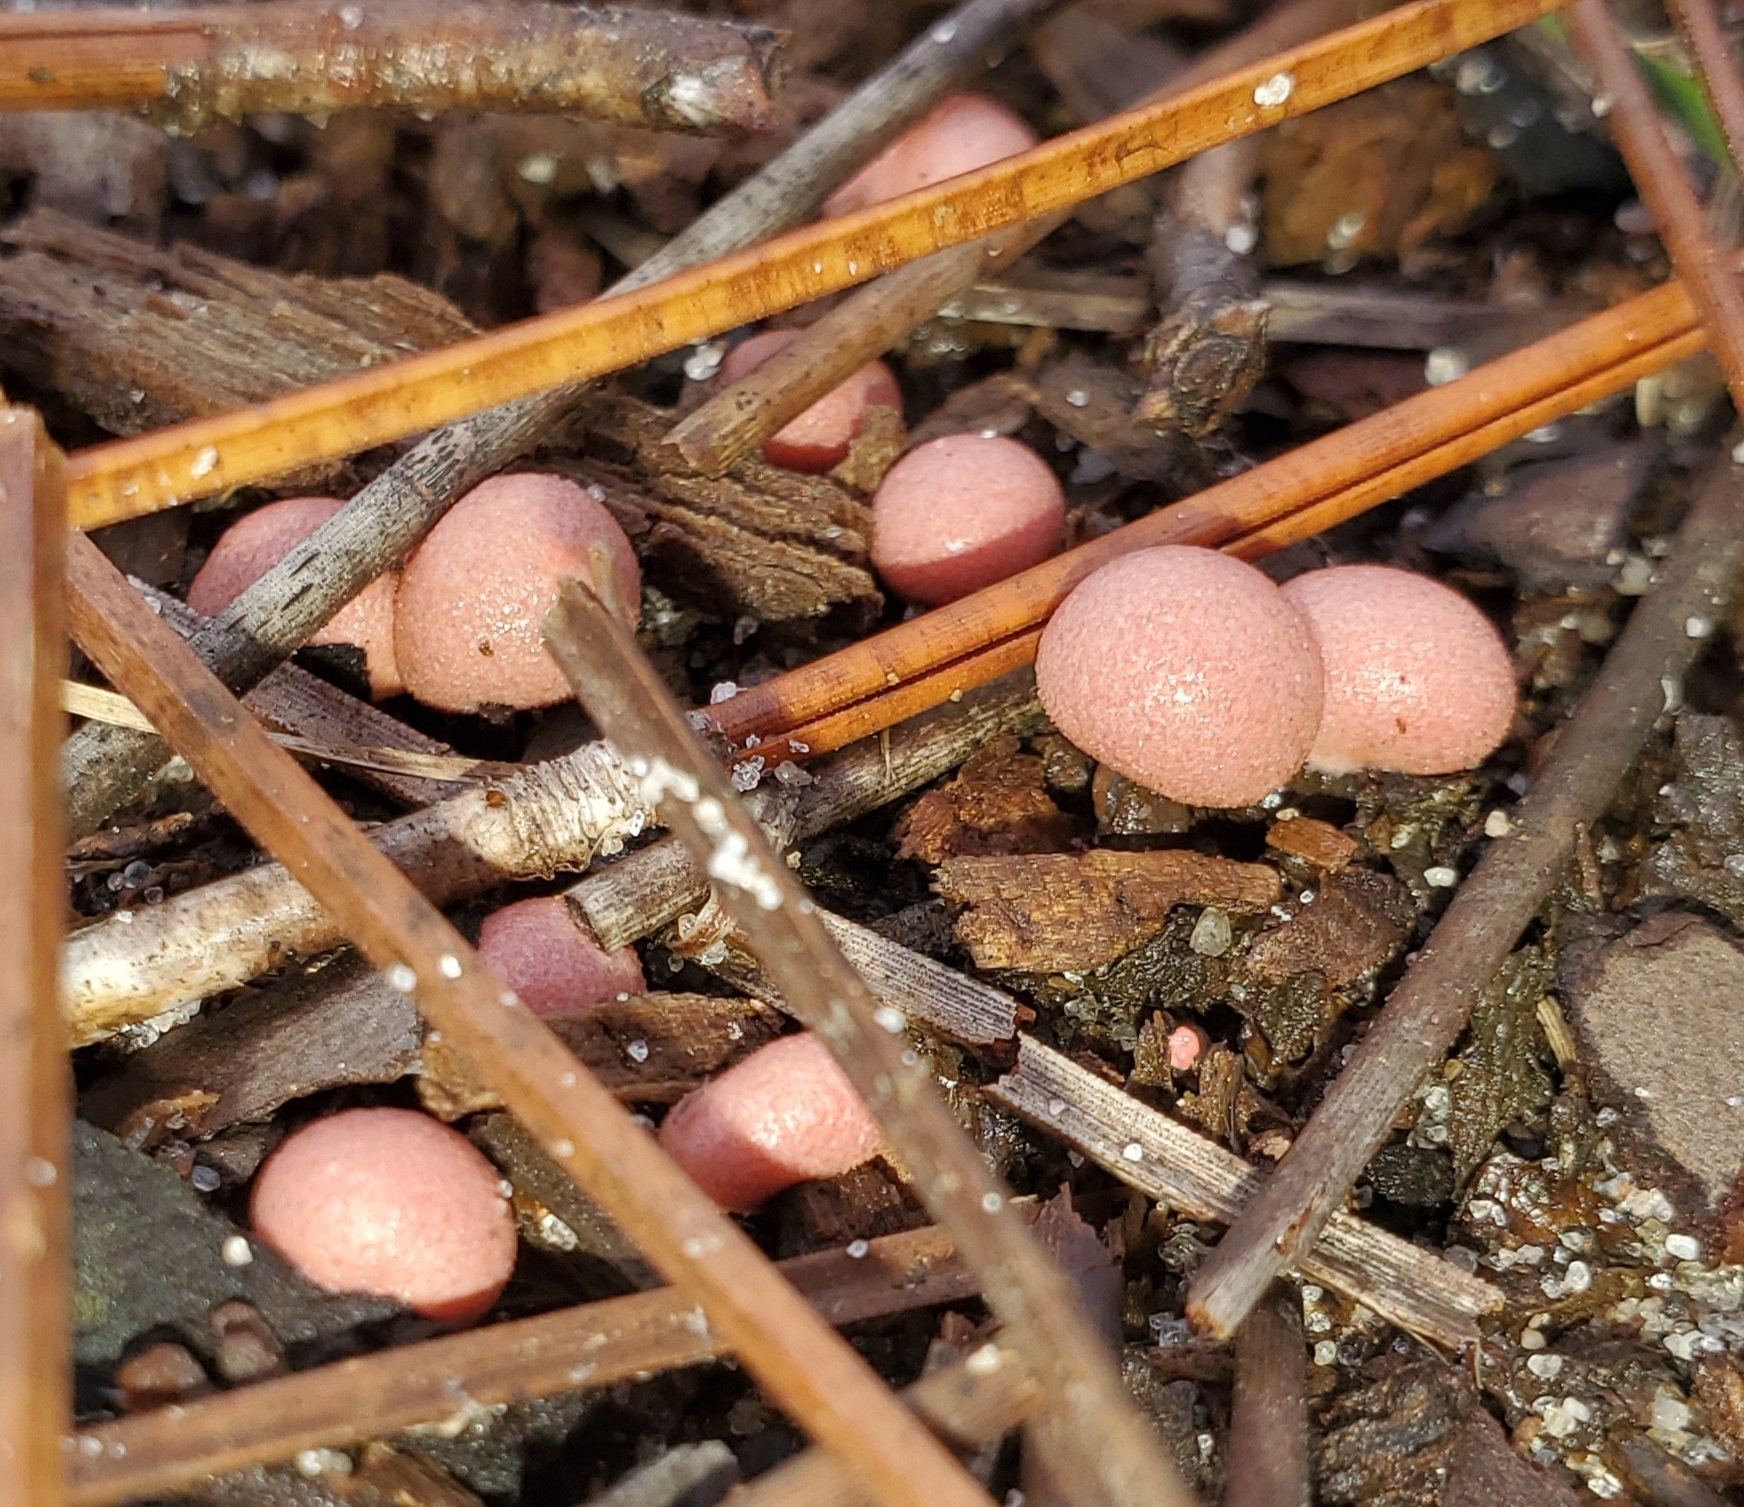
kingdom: Protozoa
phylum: Mycetozoa
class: Myxomycetes
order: Cribrariales
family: Tubiferaceae
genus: Lycogala
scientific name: Lycogala epidendrum
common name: Wolf's milk
